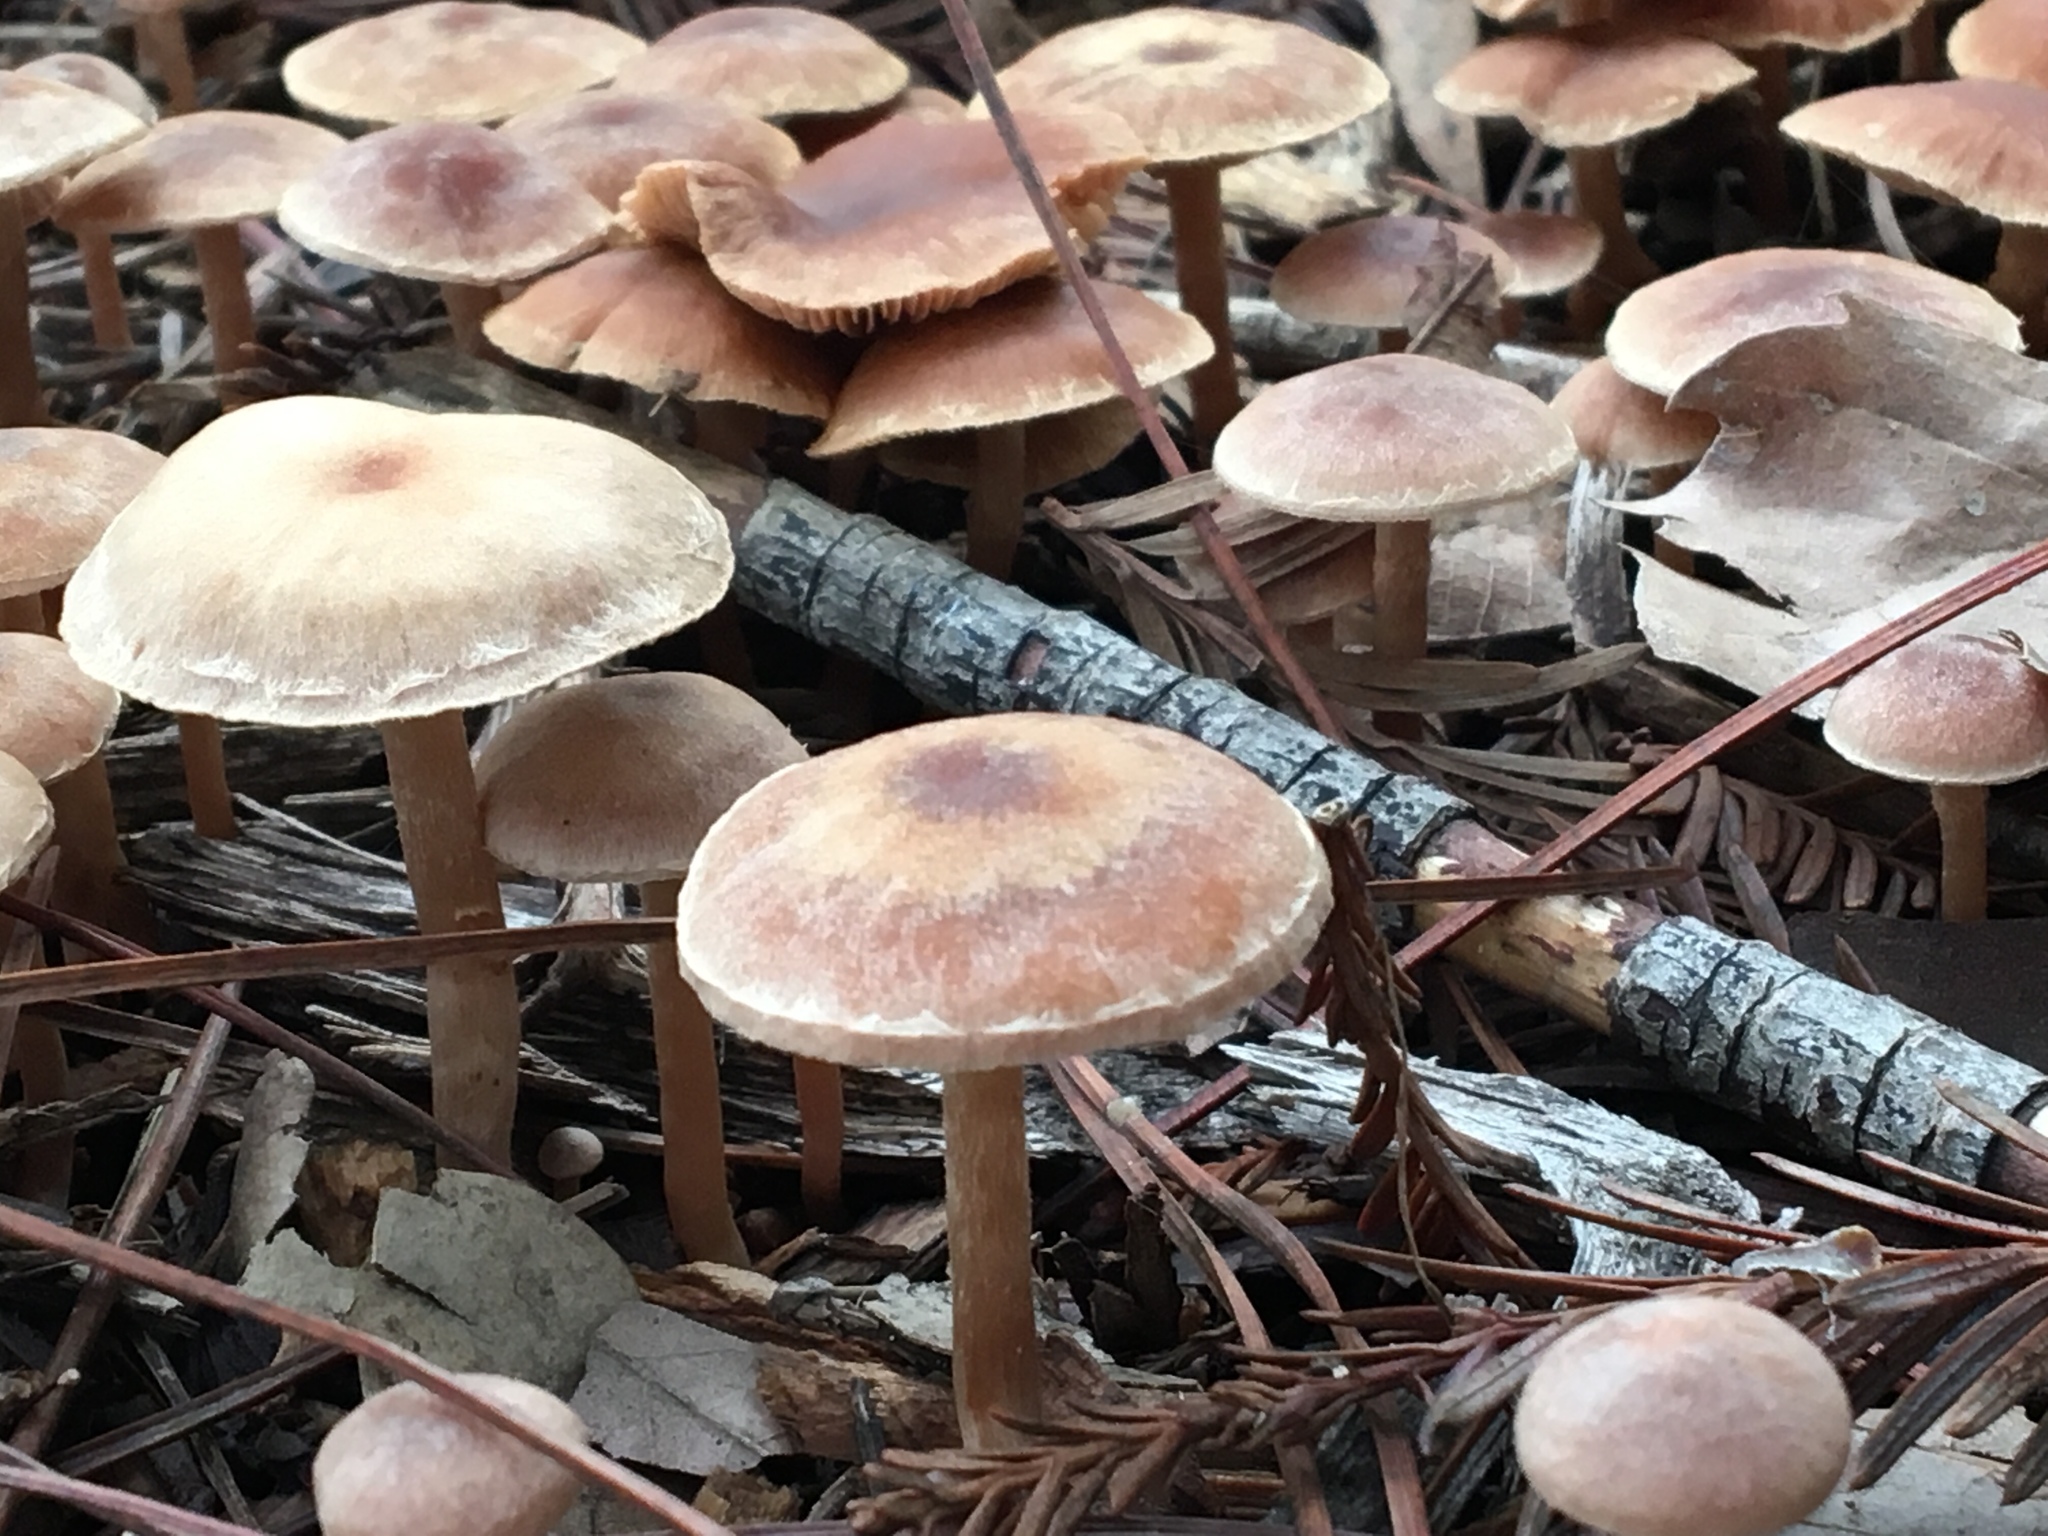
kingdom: Fungi
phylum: Basidiomycota
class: Agaricomycetes
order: Agaricales
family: Tubariaceae
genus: Tubaria
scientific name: Tubaria furfuracea
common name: Scurfy twiglet
